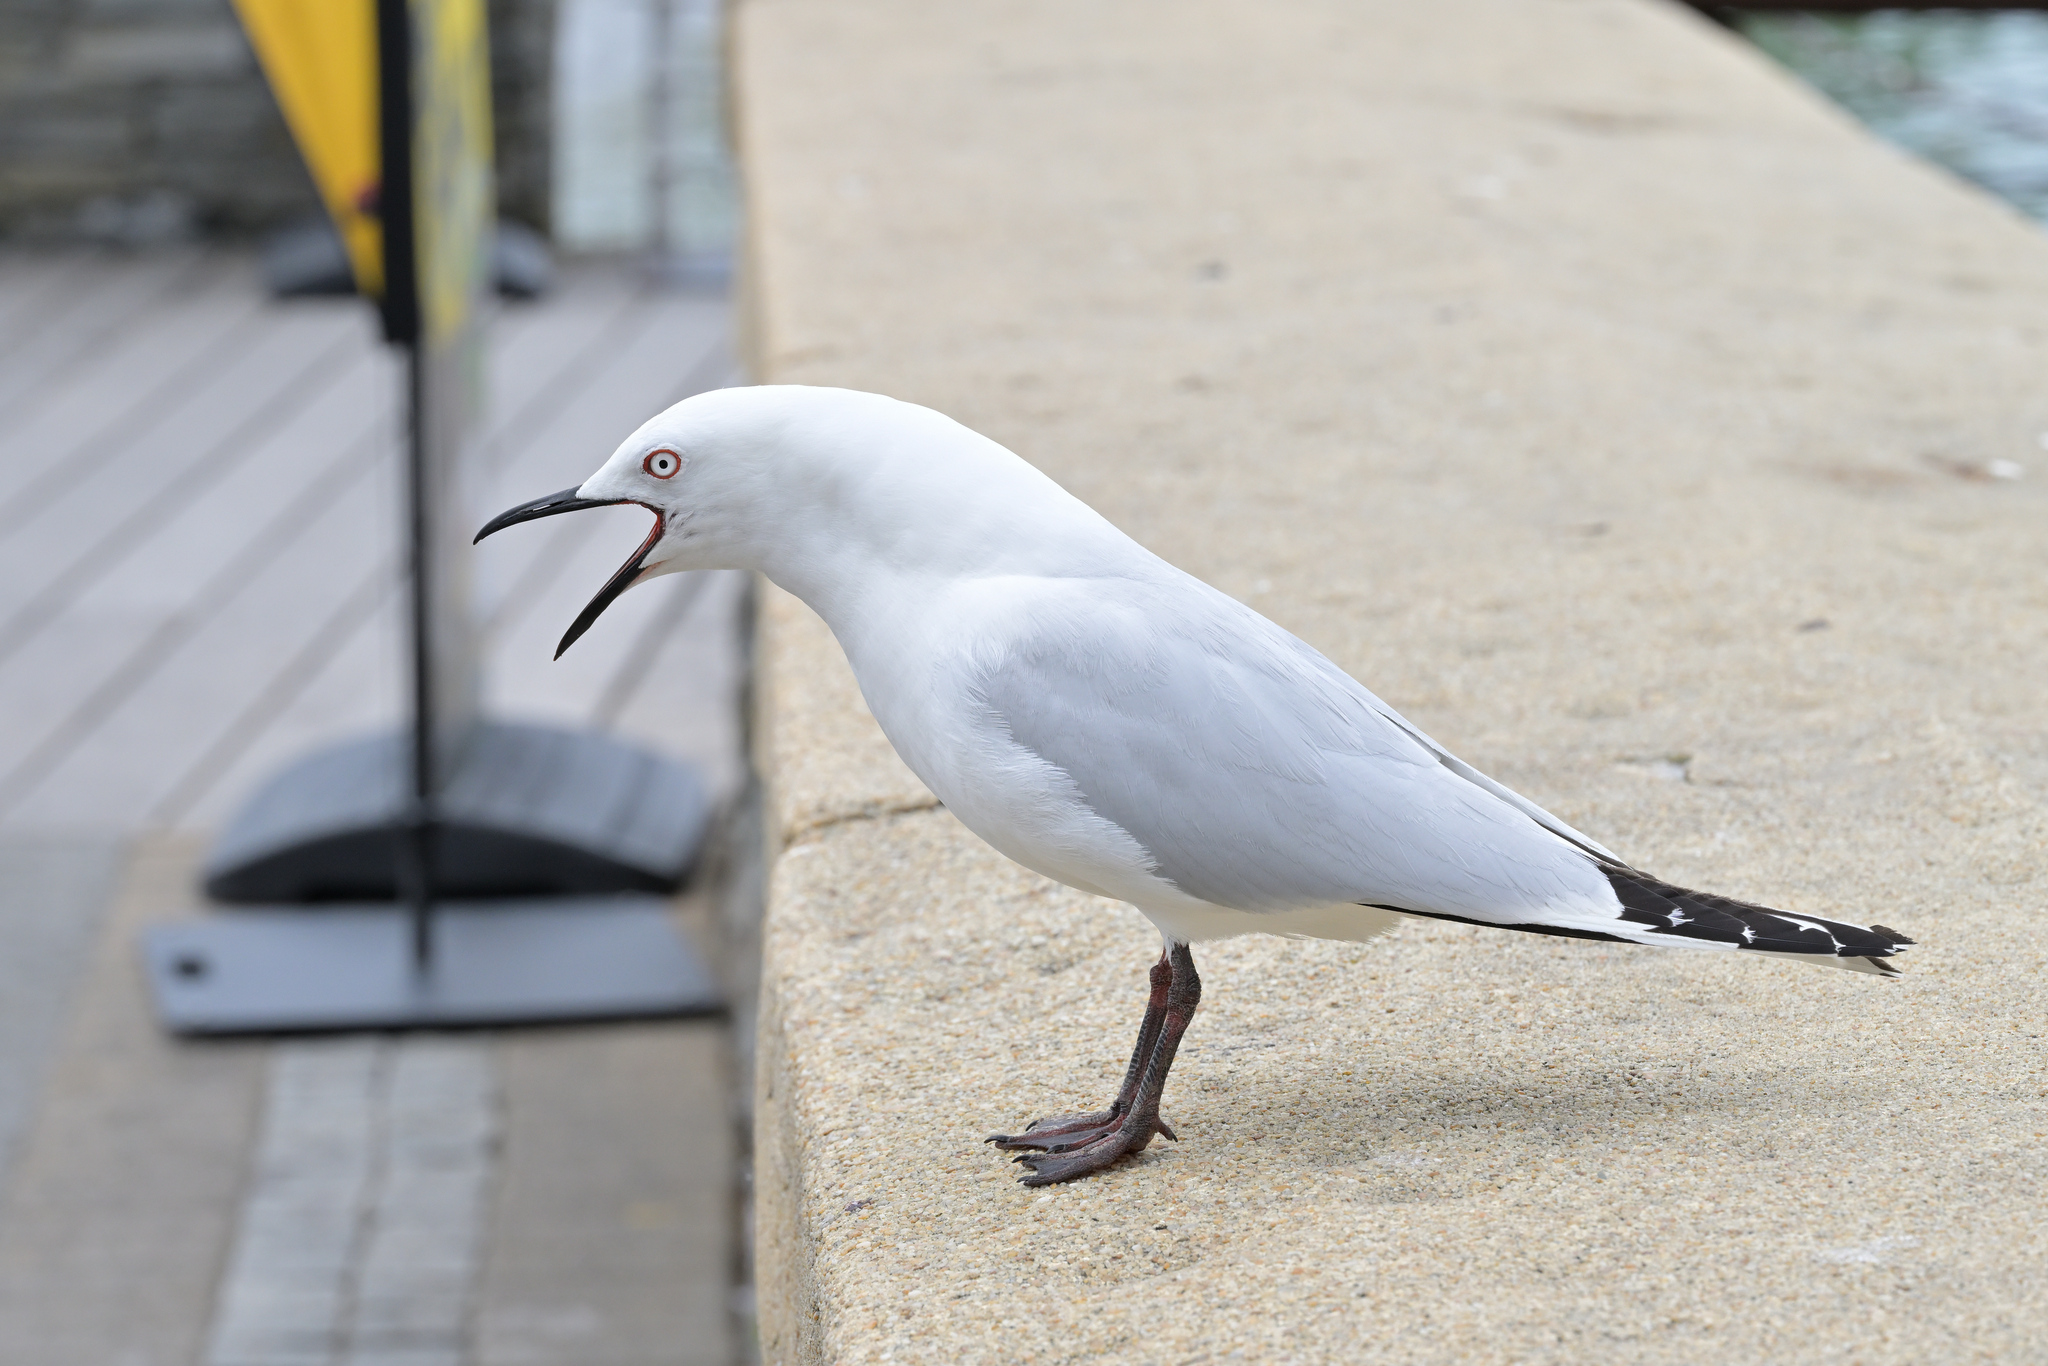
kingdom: Animalia
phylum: Chordata
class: Aves
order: Charadriiformes
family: Laridae
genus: Chroicocephalus
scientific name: Chroicocephalus bulleri
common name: Black-billed gull
